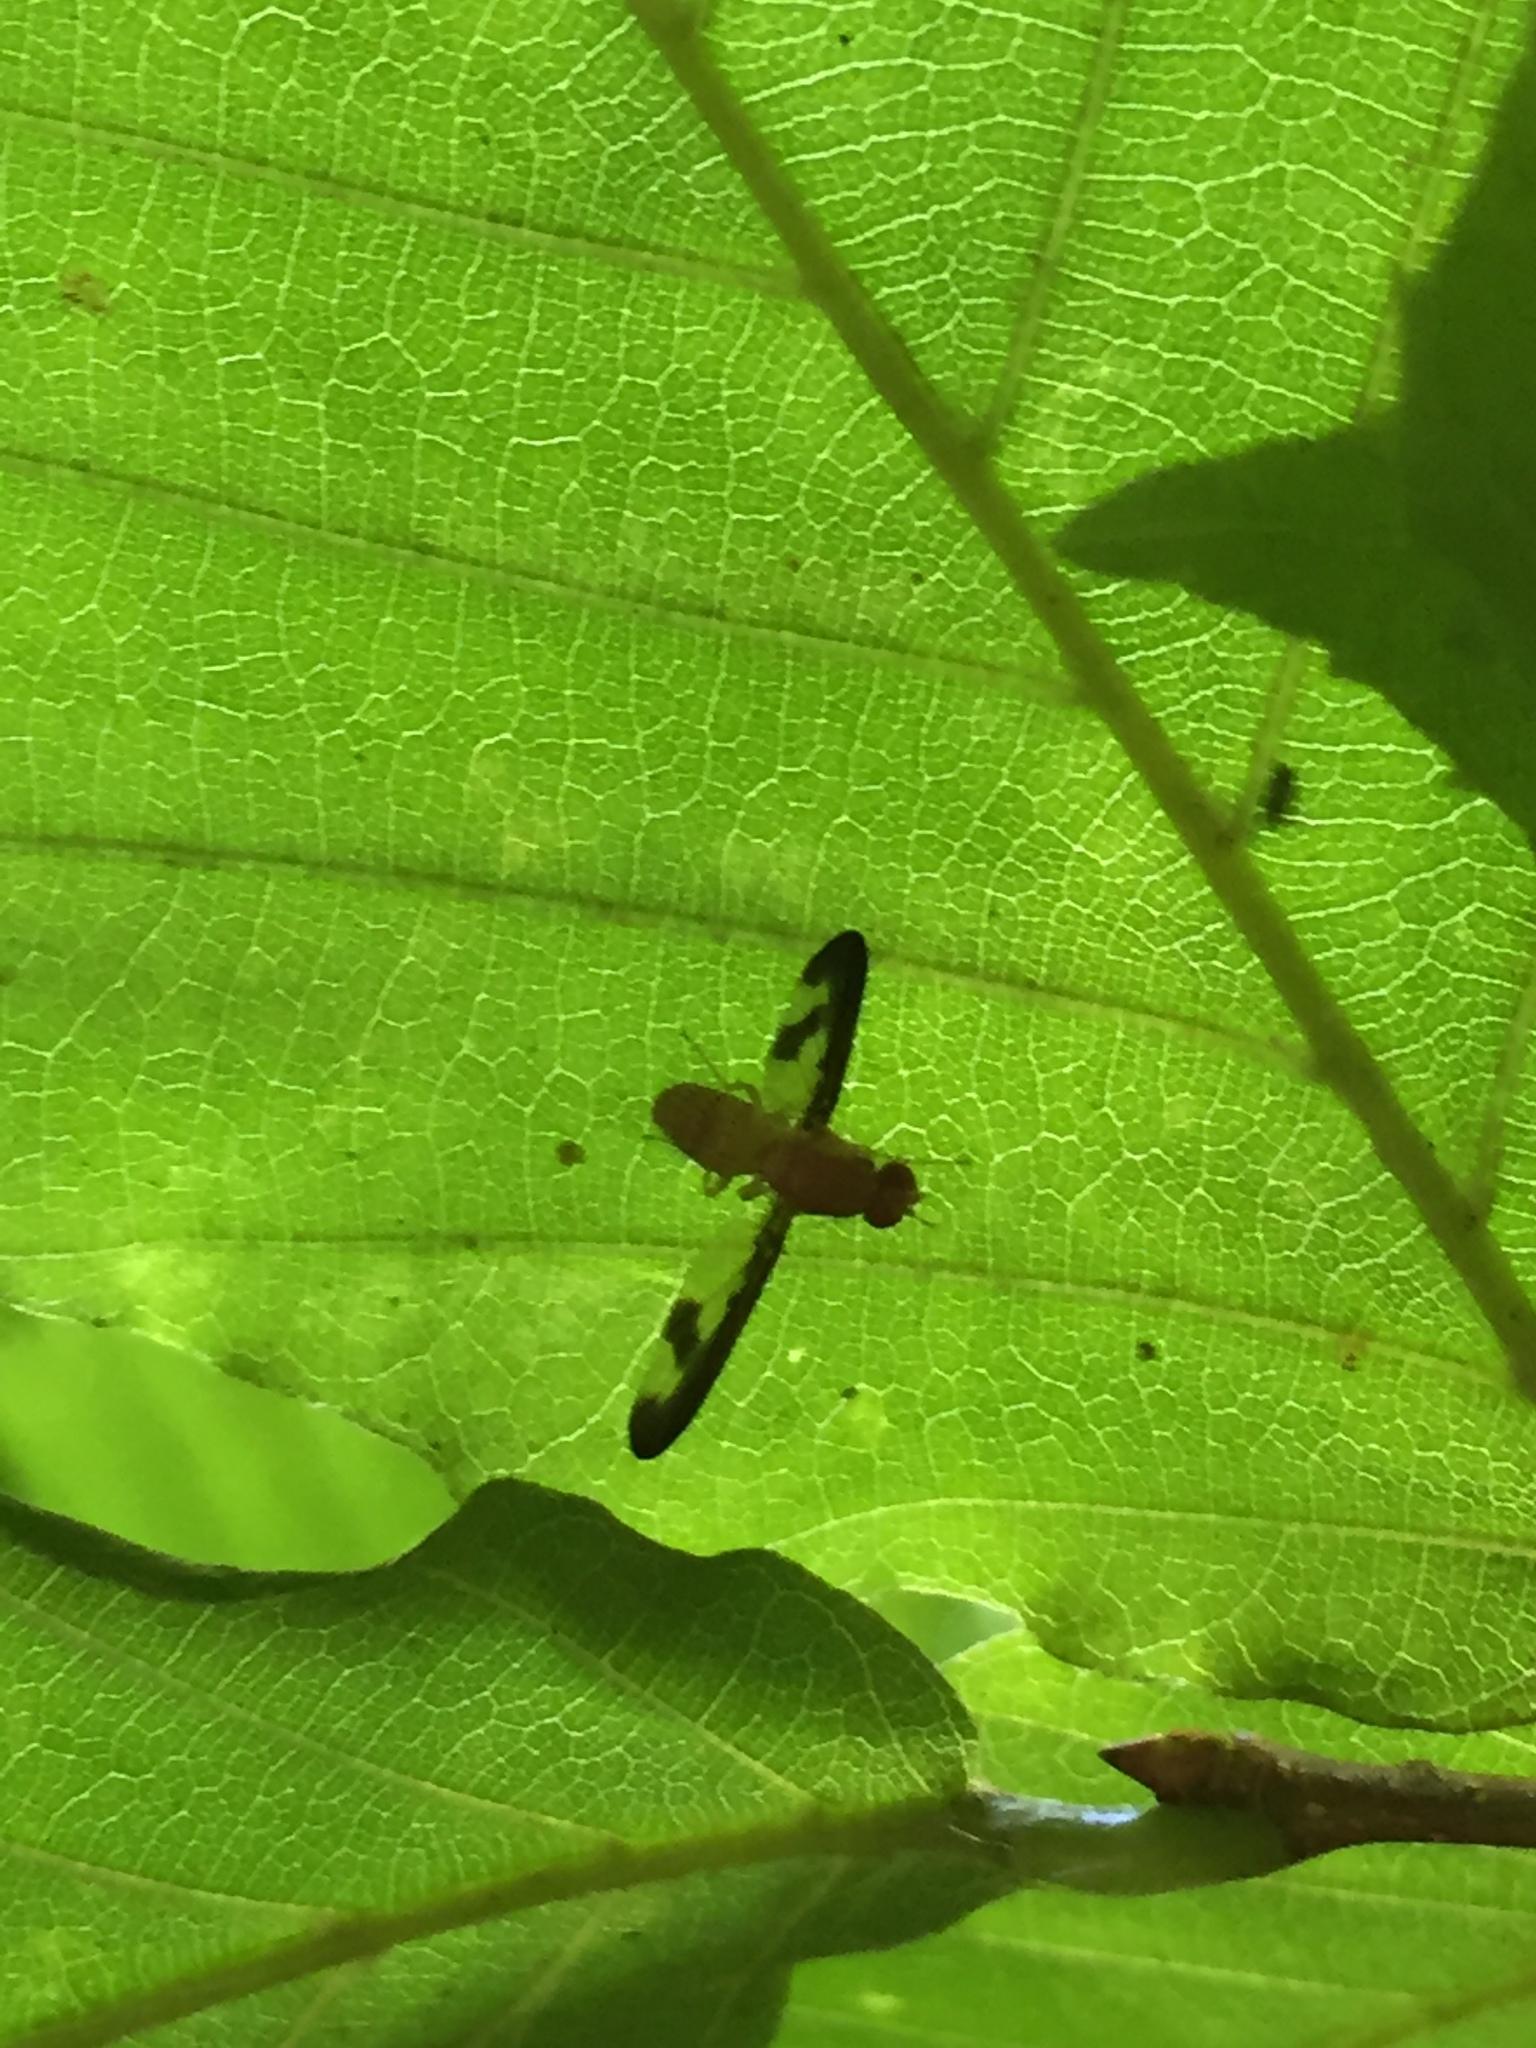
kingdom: Animalia
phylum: Arthropoda
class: Insecta
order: Diptera
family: Pallopteridae
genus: Toxonevra
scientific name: Toxonevra superba
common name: Antlered flutter fly
